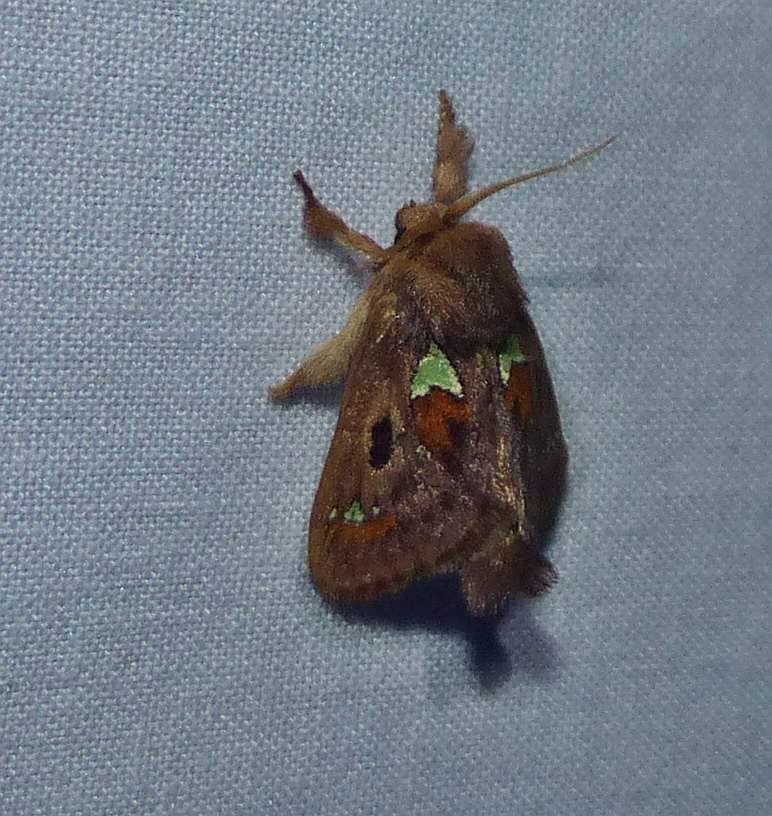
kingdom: Animalia
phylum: Arthropoda
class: Insecta
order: Lepidoptera
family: Limacodidae
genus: Euclea
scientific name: Euclea delphinii
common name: Spiny oak-slug moth
